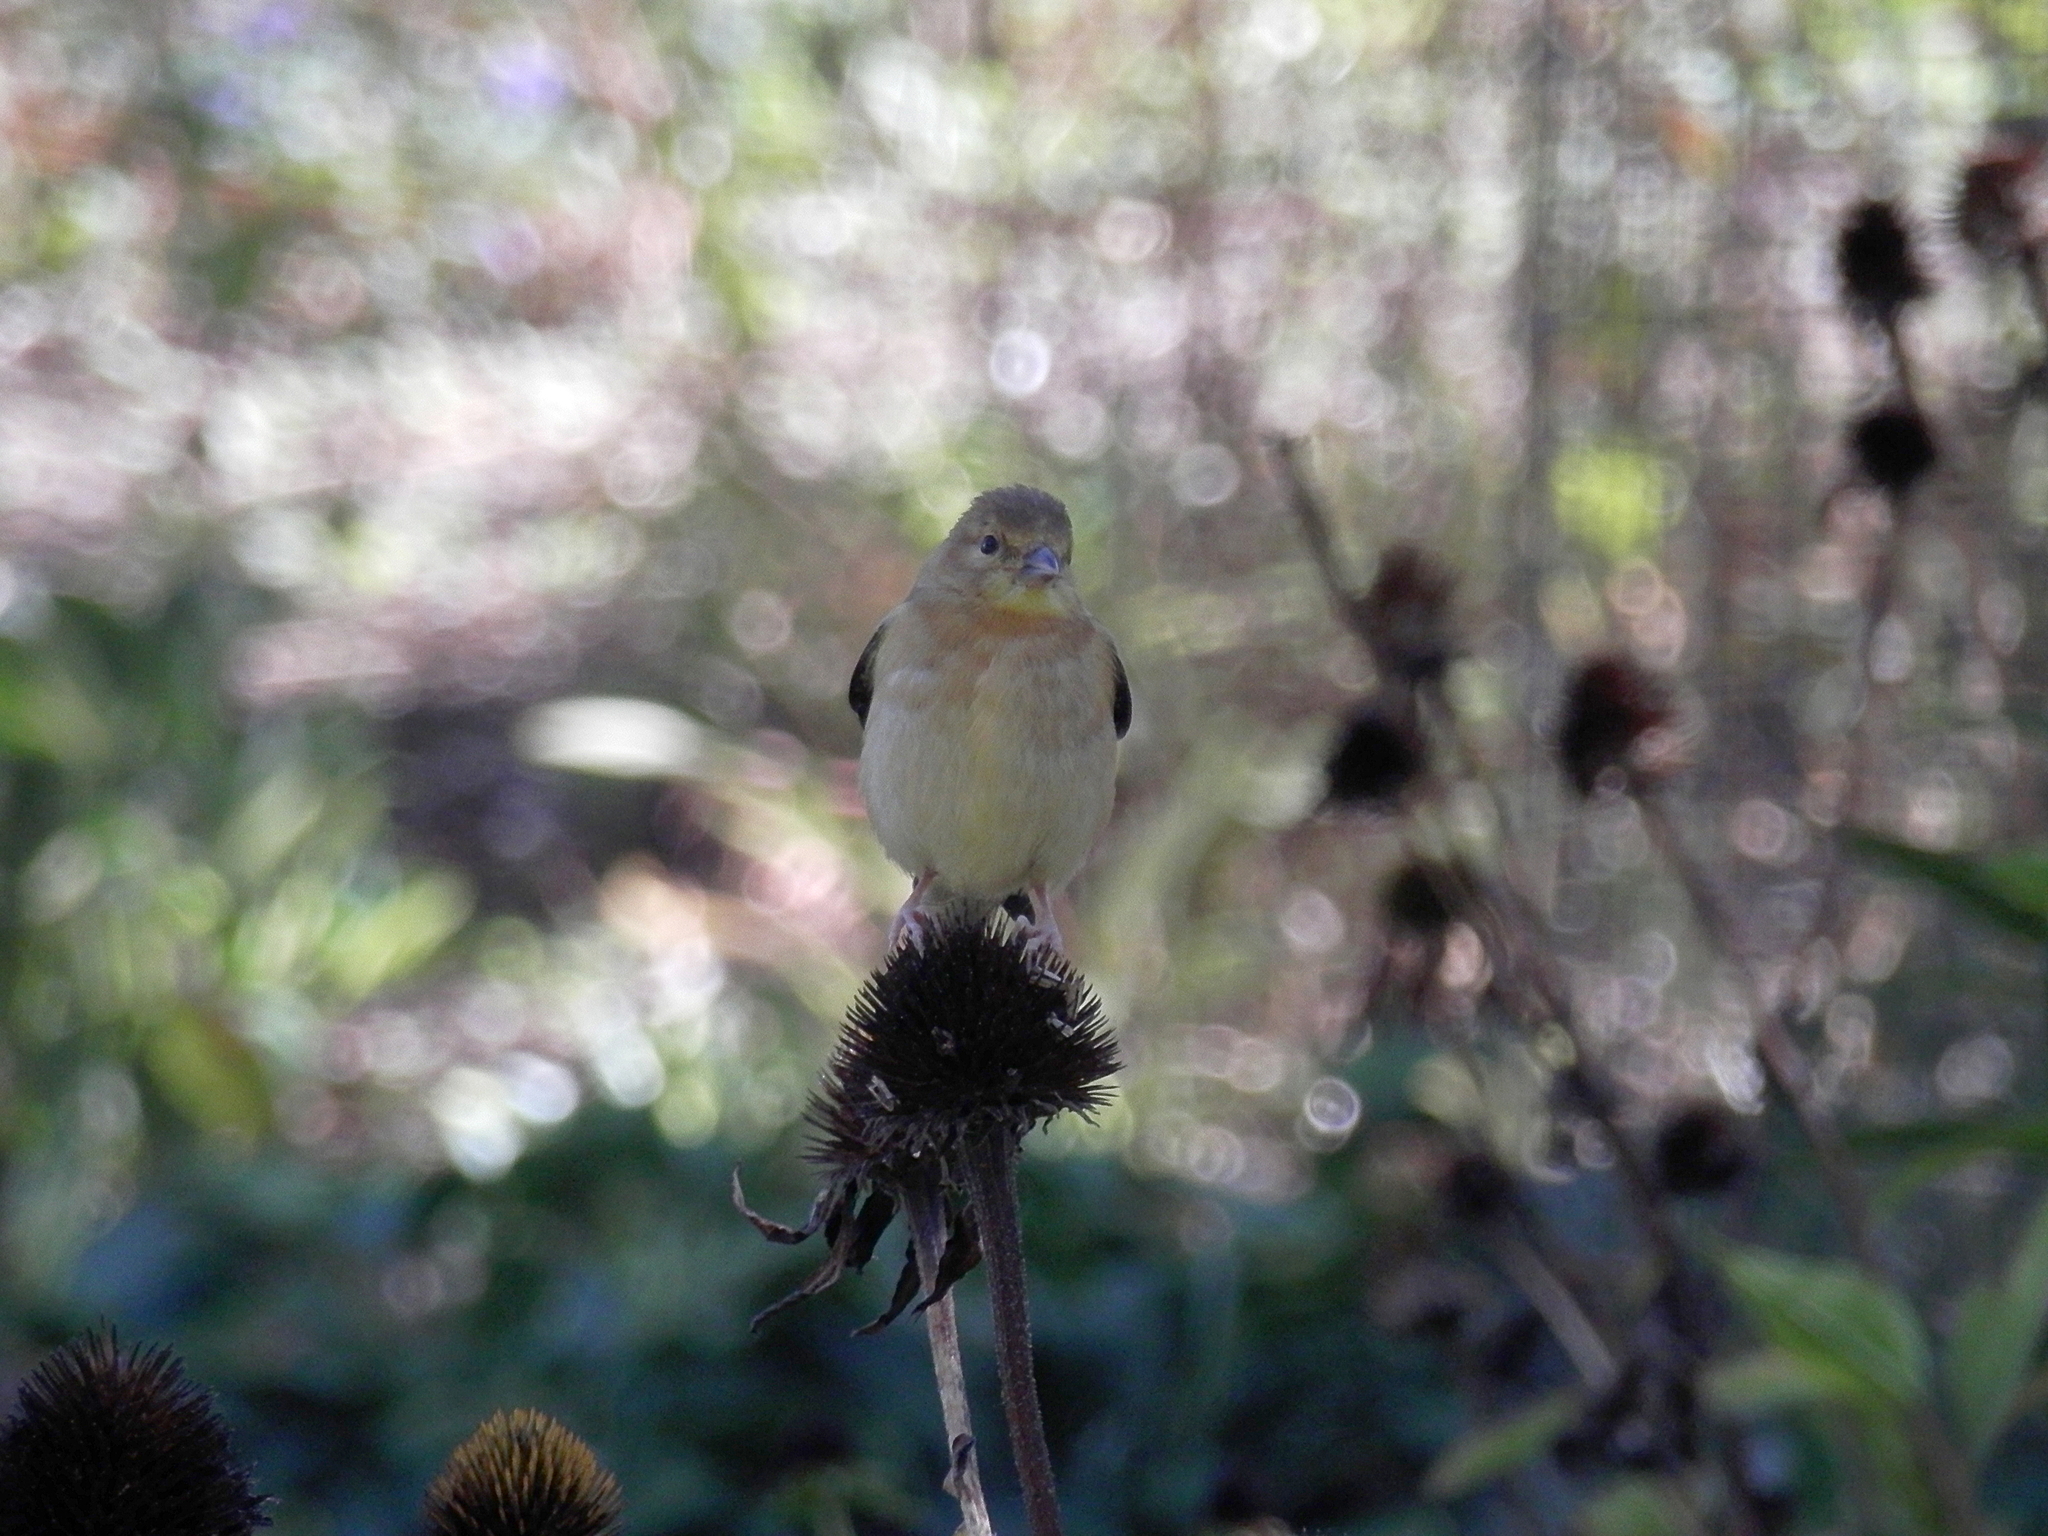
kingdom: Animalia
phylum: Chordata
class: Aves
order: Passeriformes
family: Fringillidae
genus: Spinus
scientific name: Spinus tristis
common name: American goldfinch
